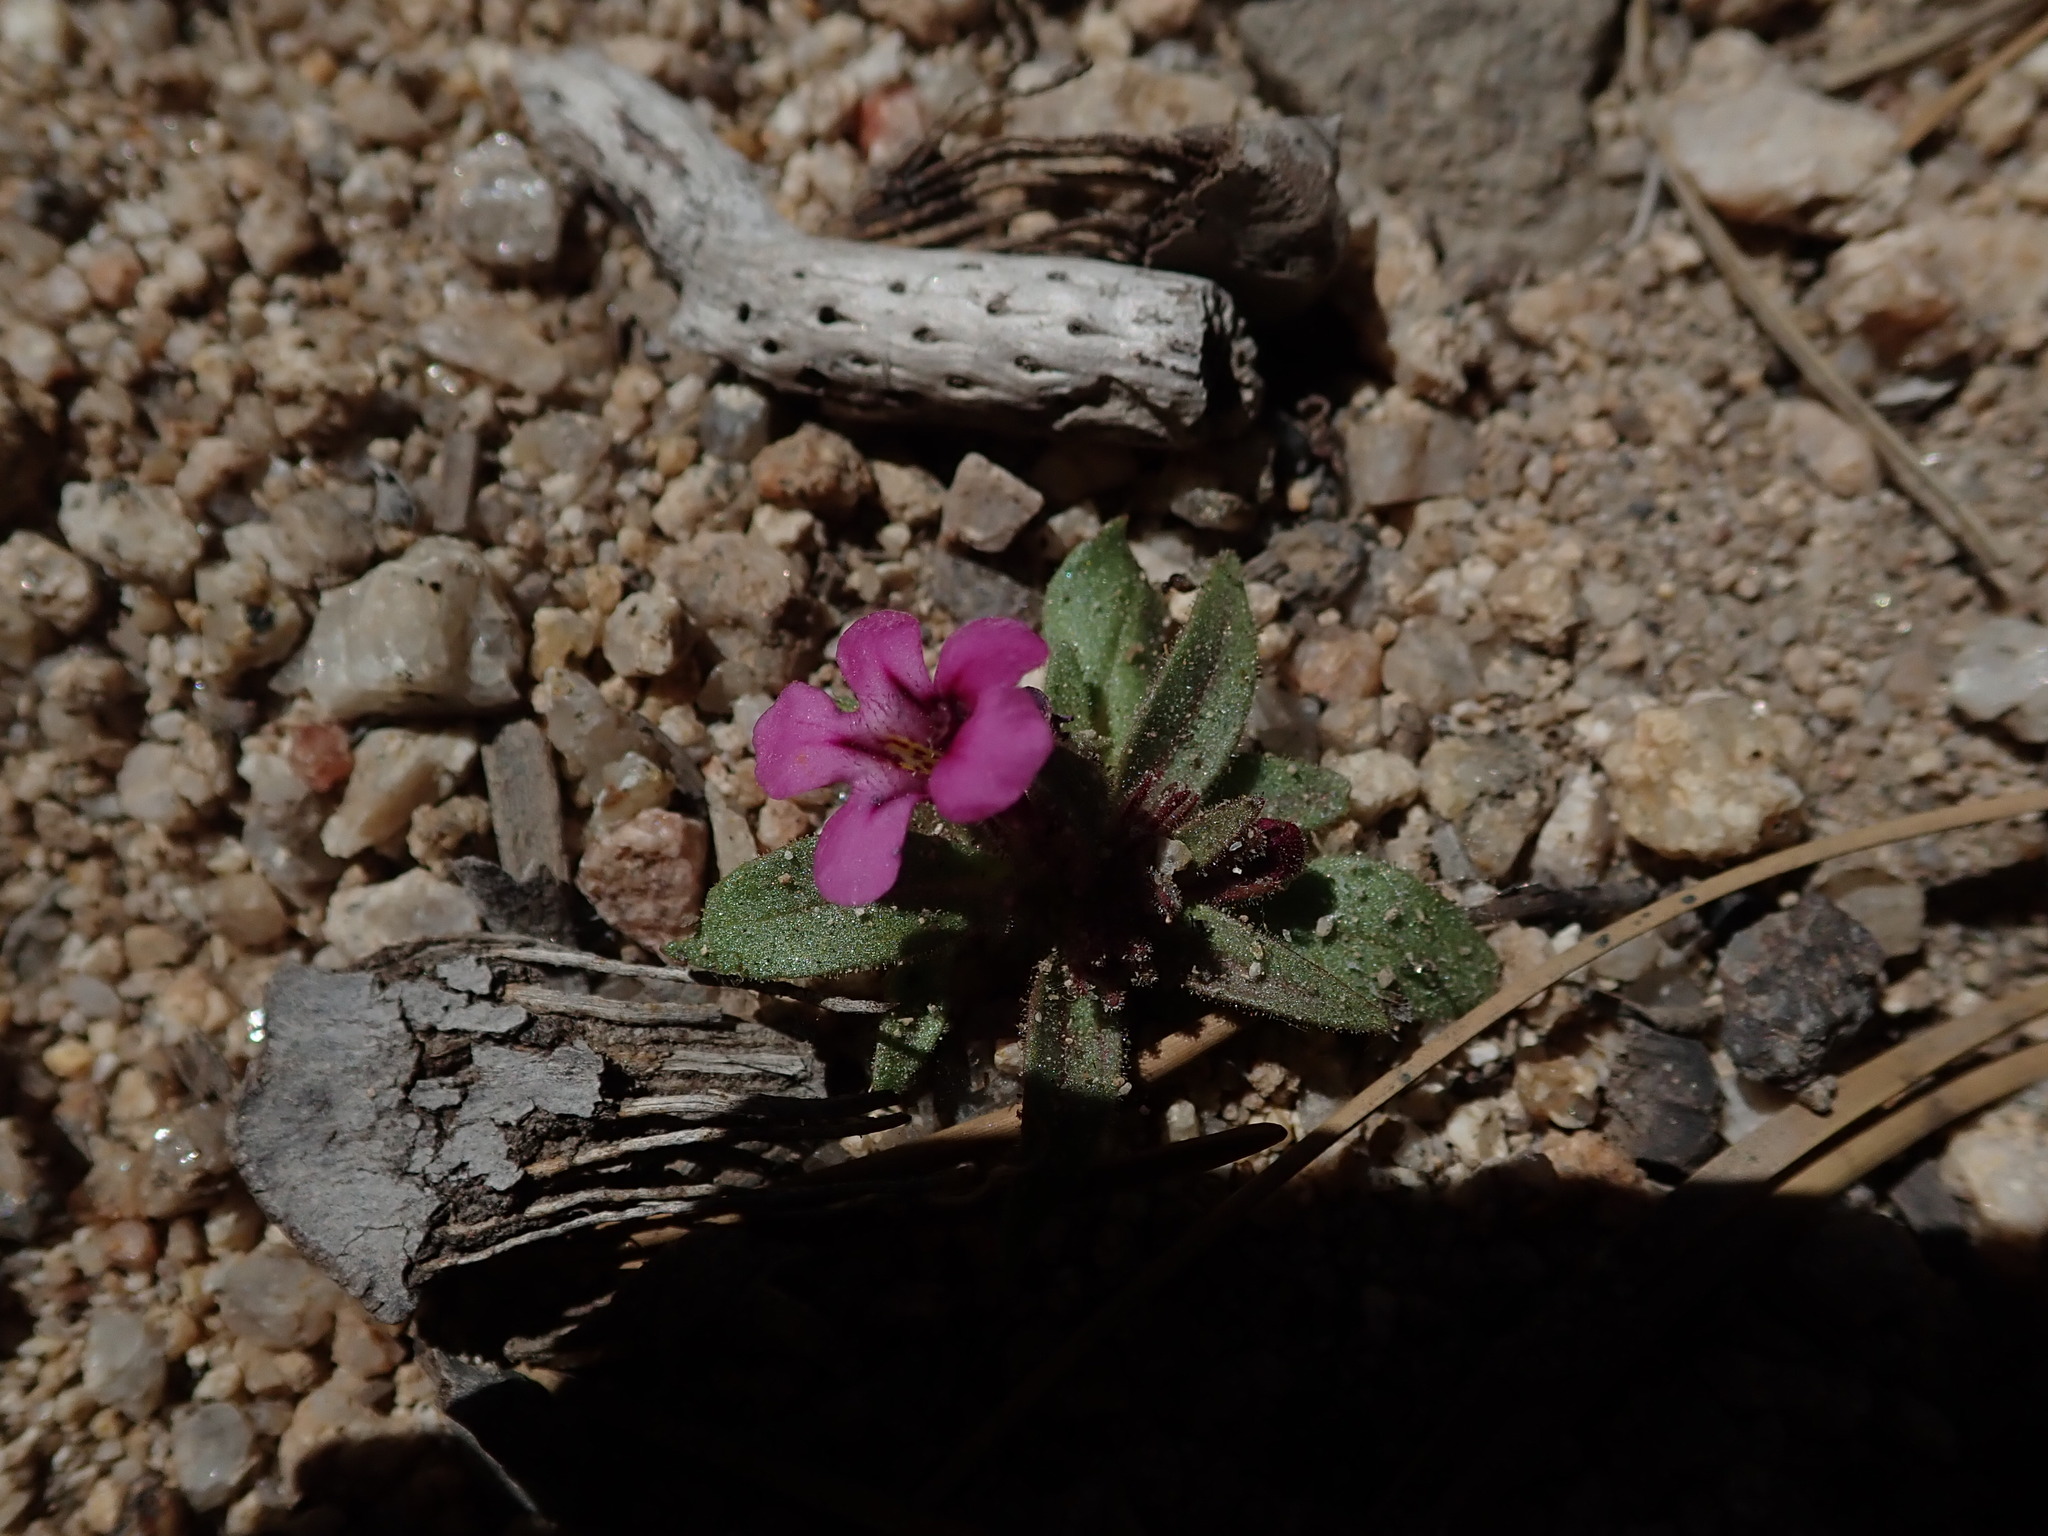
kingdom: Plantae
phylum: Tracheophyta
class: Magnoliopsida
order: Lamiales
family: Phrymaceae
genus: Diplacus
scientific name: Diplacus nanus
